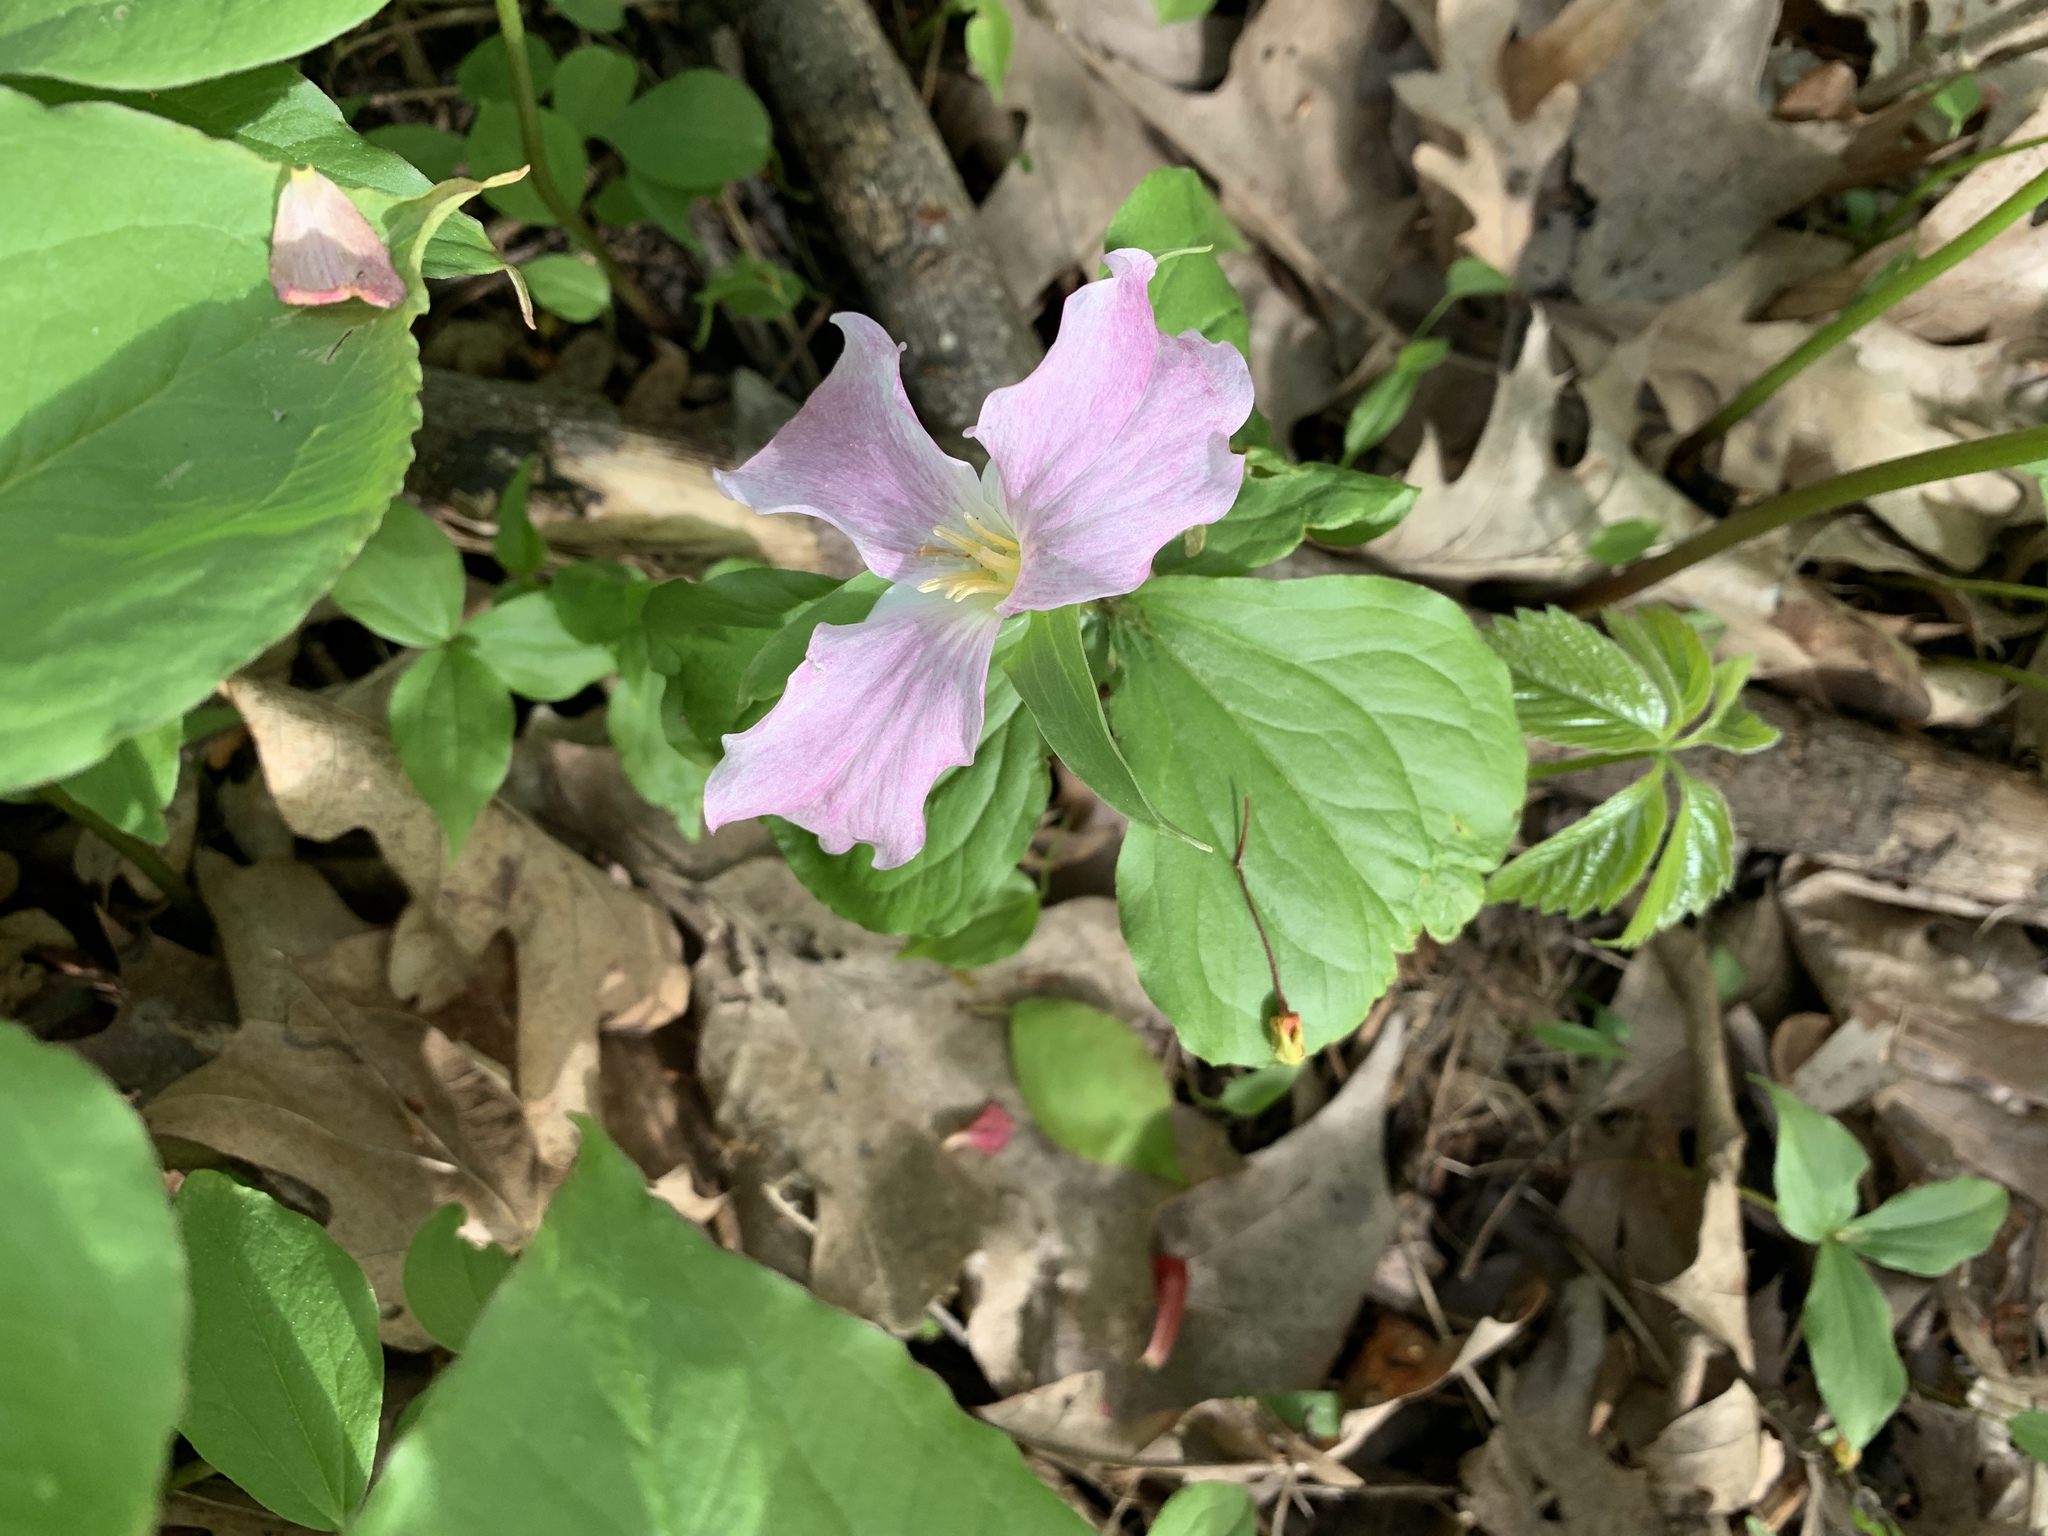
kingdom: Plantae
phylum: Tracheophyta
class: Liliopsida
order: Liliales
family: Melanthiaceae
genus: Trillium
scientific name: Trillium grandiflorum
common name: Great white trillium
